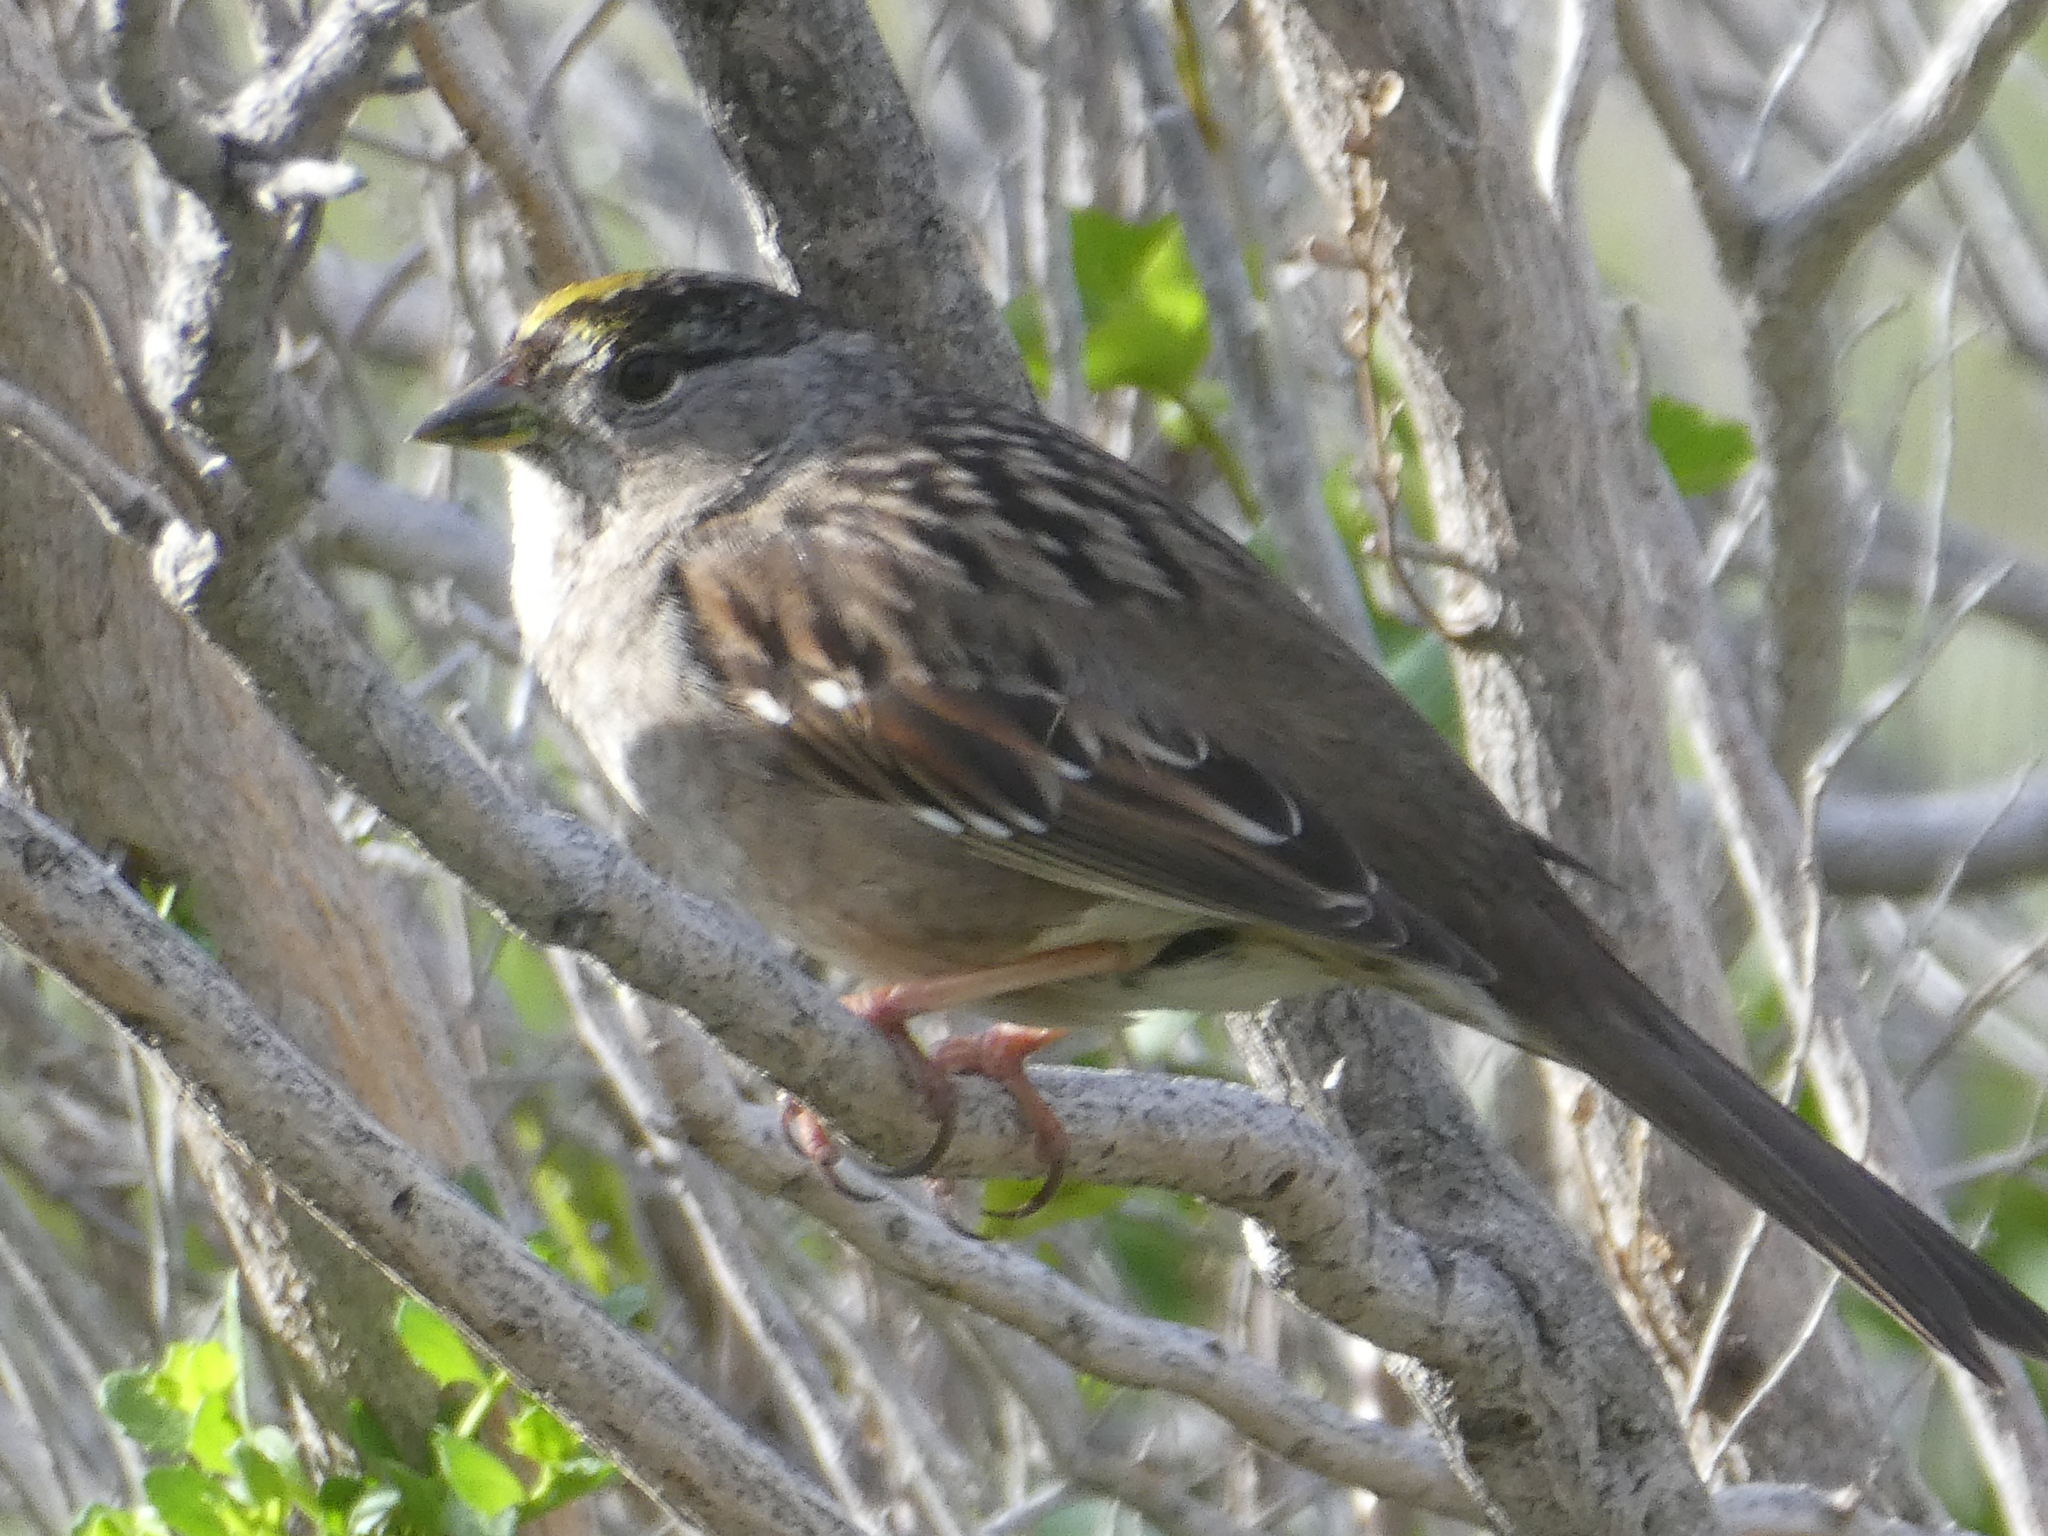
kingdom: Animalia
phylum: Chordata
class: Aves
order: Passeriformes
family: Passerellidae
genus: Zonotrichia
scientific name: Zonotrichia atricapilla
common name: Golden-crowned sparrow
